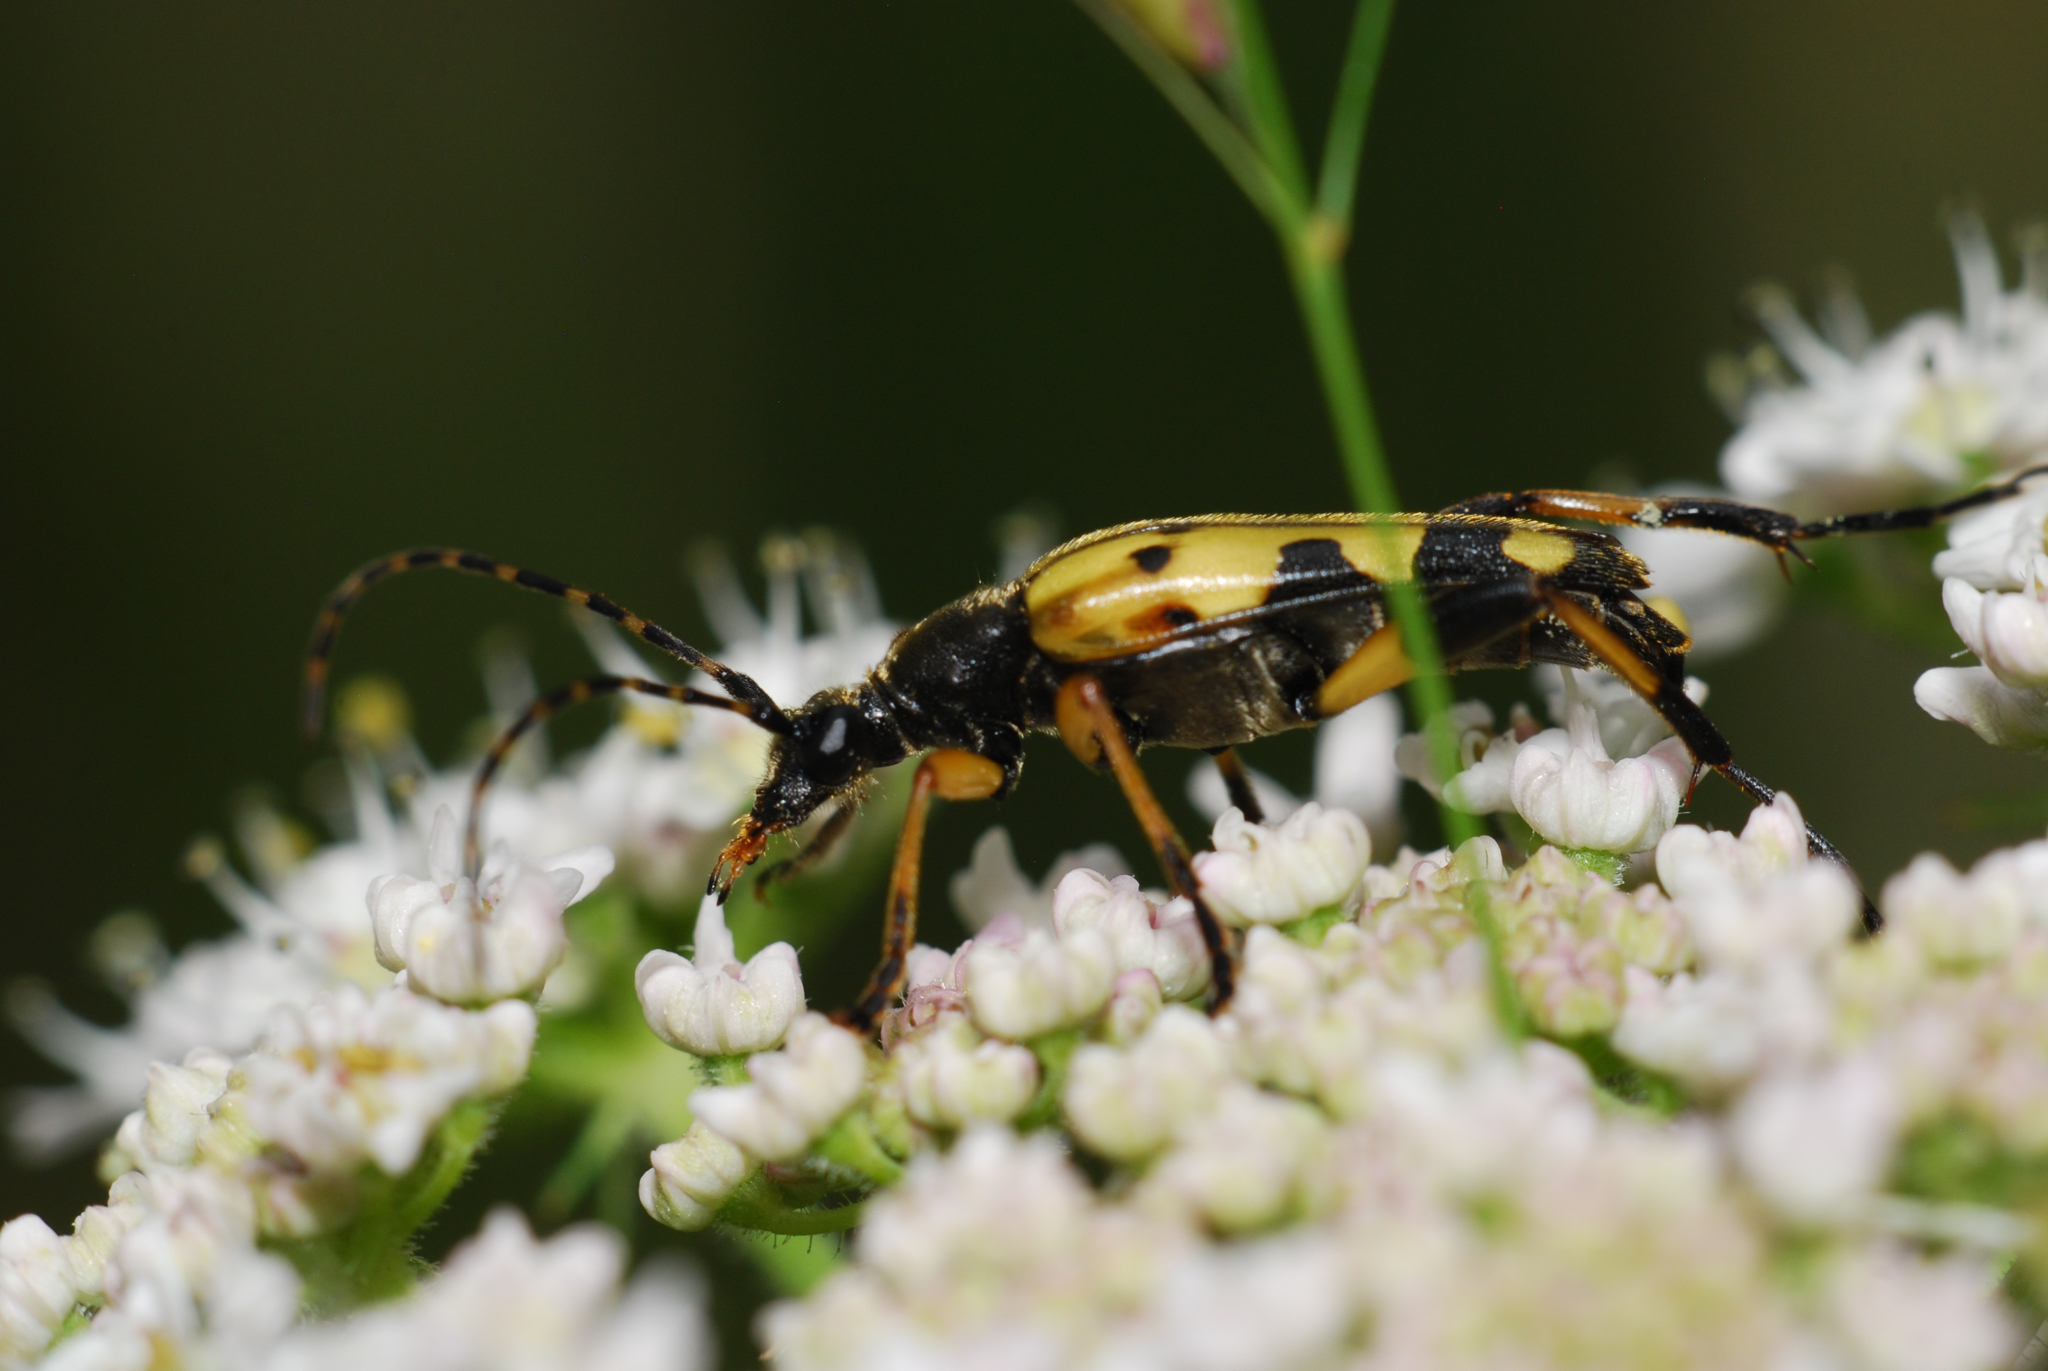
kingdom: Animalia
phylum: Arthropoda
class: Insecta
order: Coleoptera
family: Cerambycidae
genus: Rutpela
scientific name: Rutpela maculata
